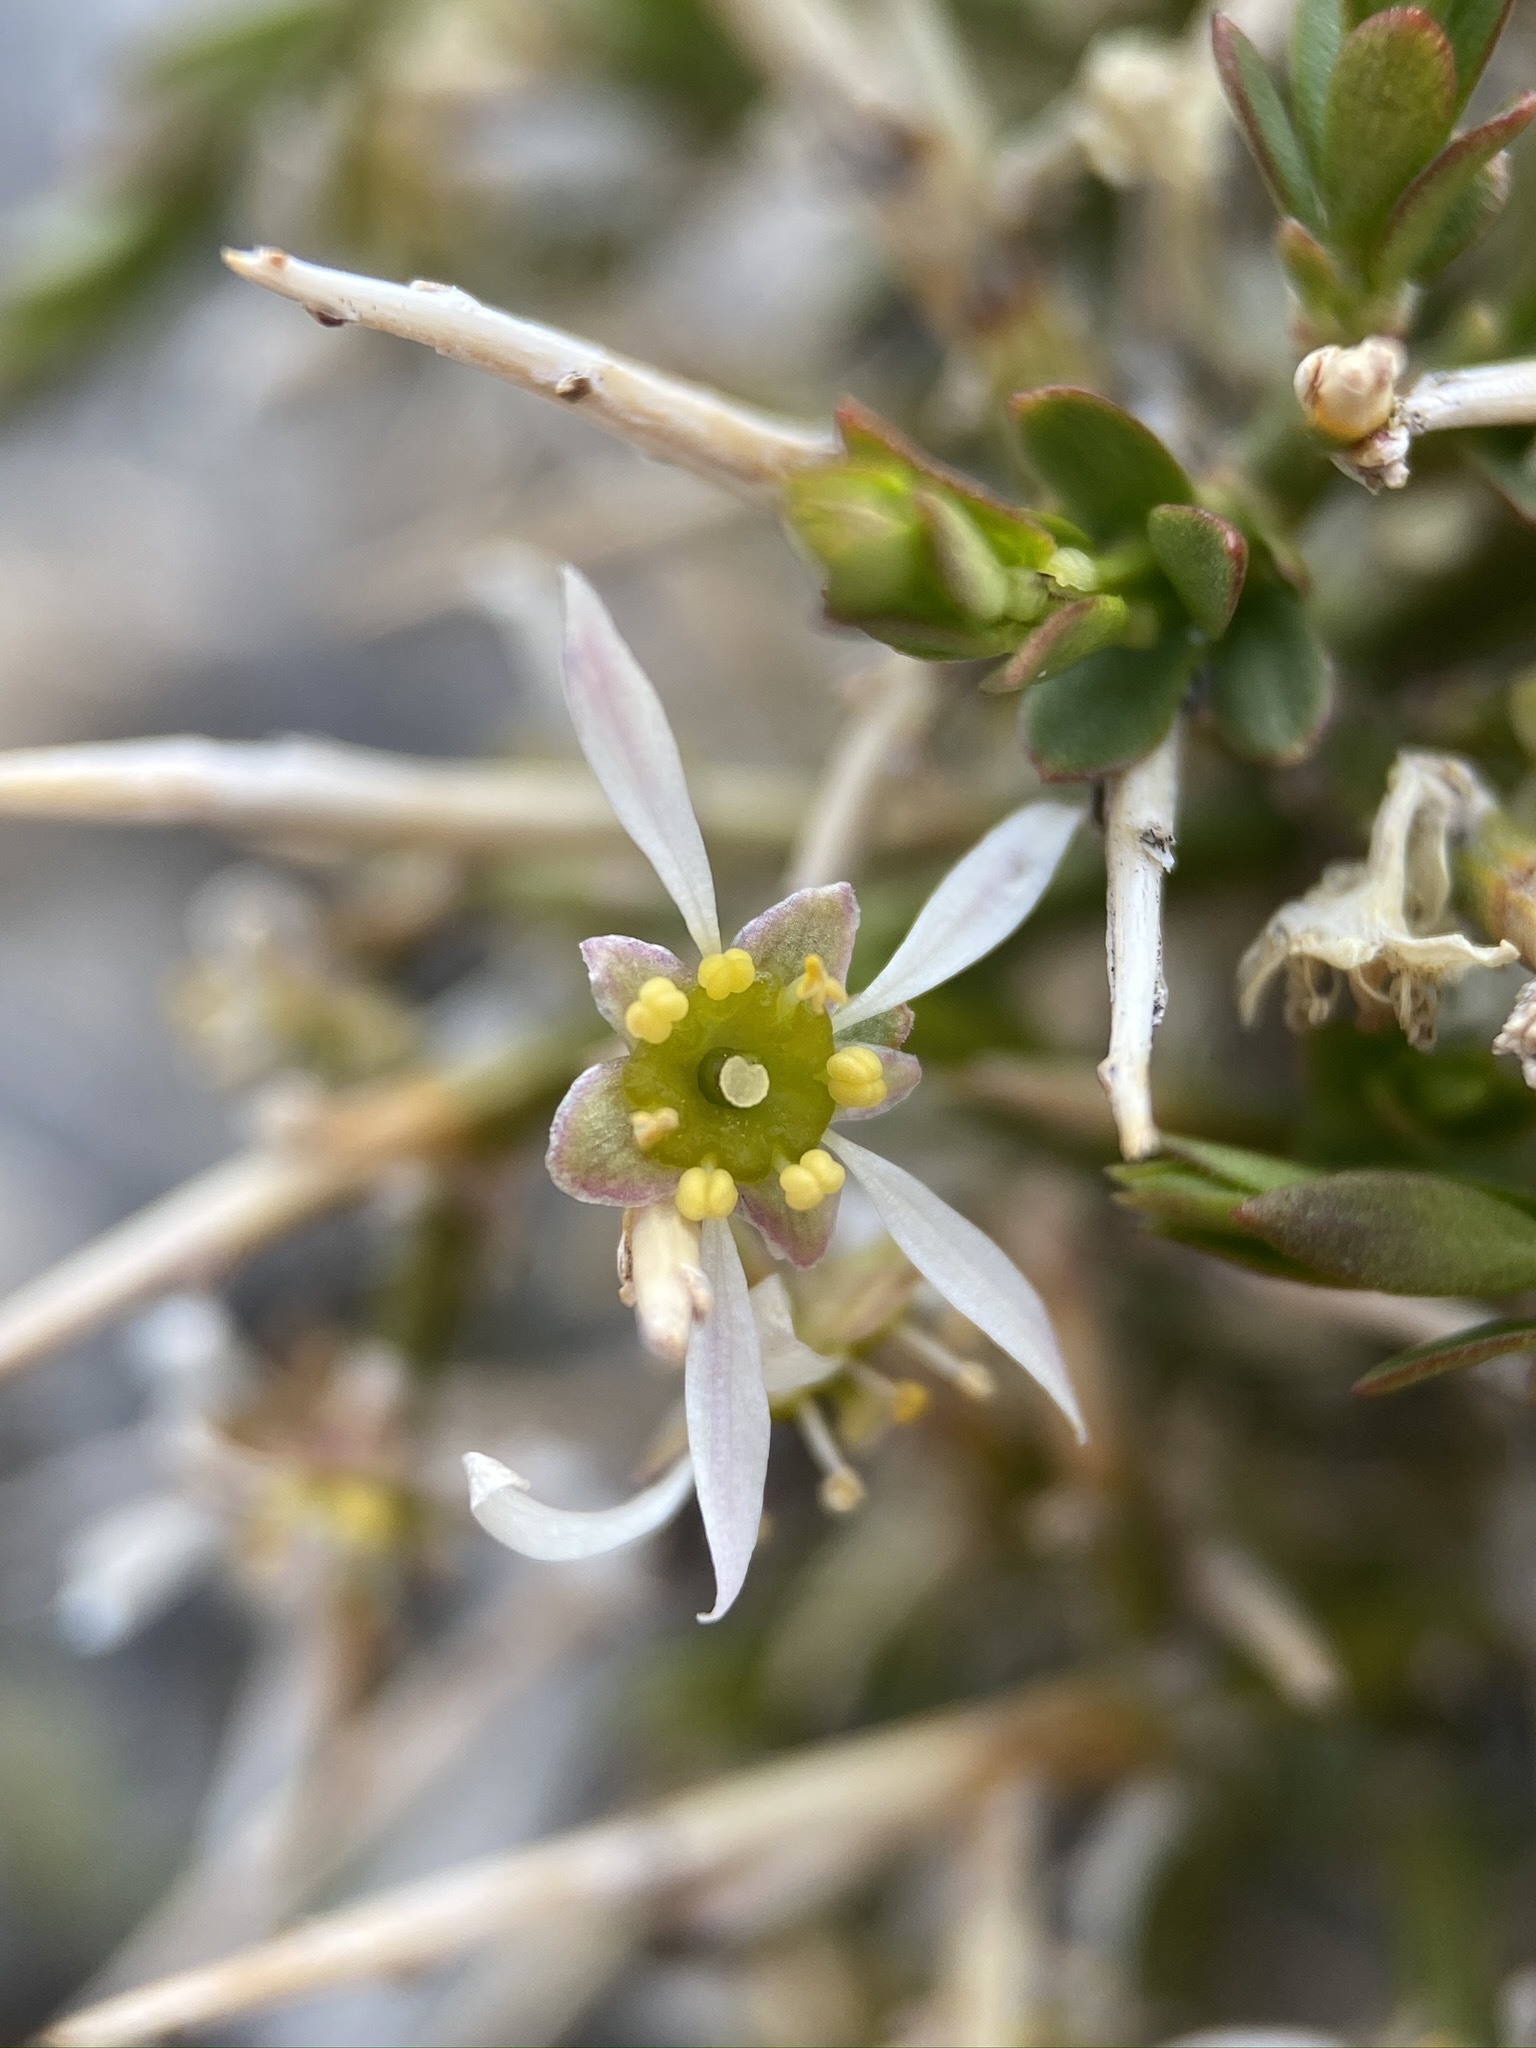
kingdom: Plantae
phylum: Tracheophyta
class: Magnoliopsida
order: Crossosomatales
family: Crossosomataceae
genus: Glossopetalon
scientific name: Glossopetalon spinescens
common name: Spring greasebush
